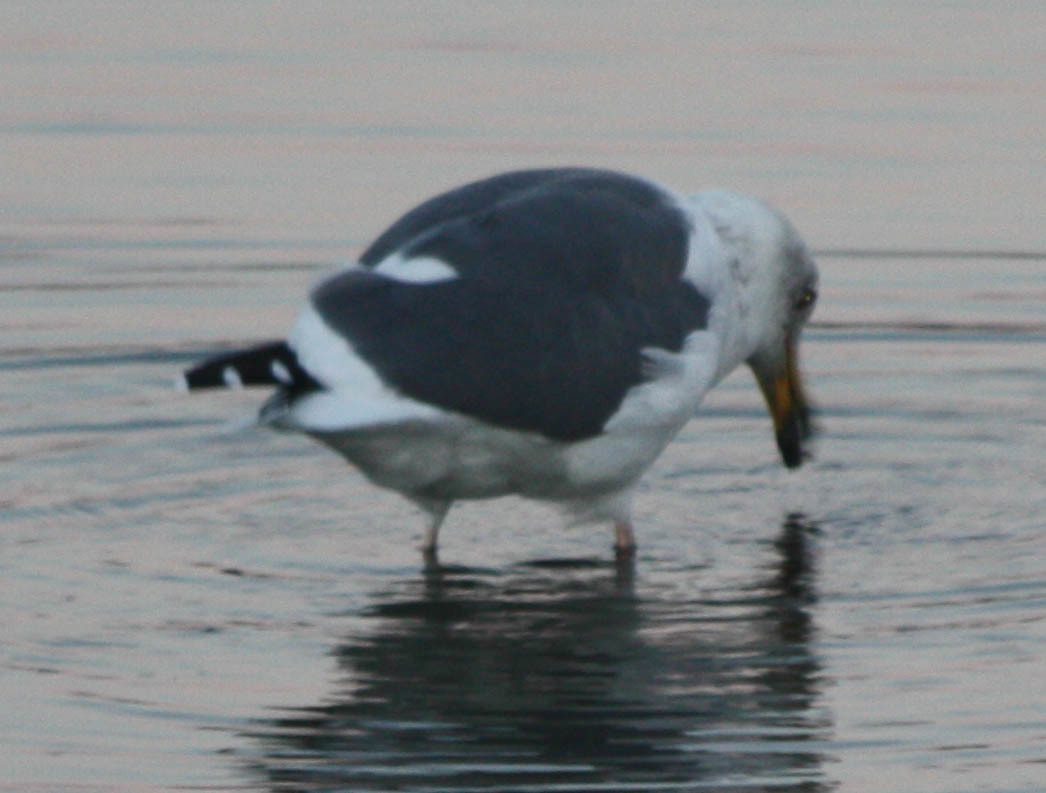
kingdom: Animalia
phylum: Chordata
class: Aves
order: Charadriiformes
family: Laridae
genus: Larus
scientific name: Larus occidentalis
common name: Western gull
